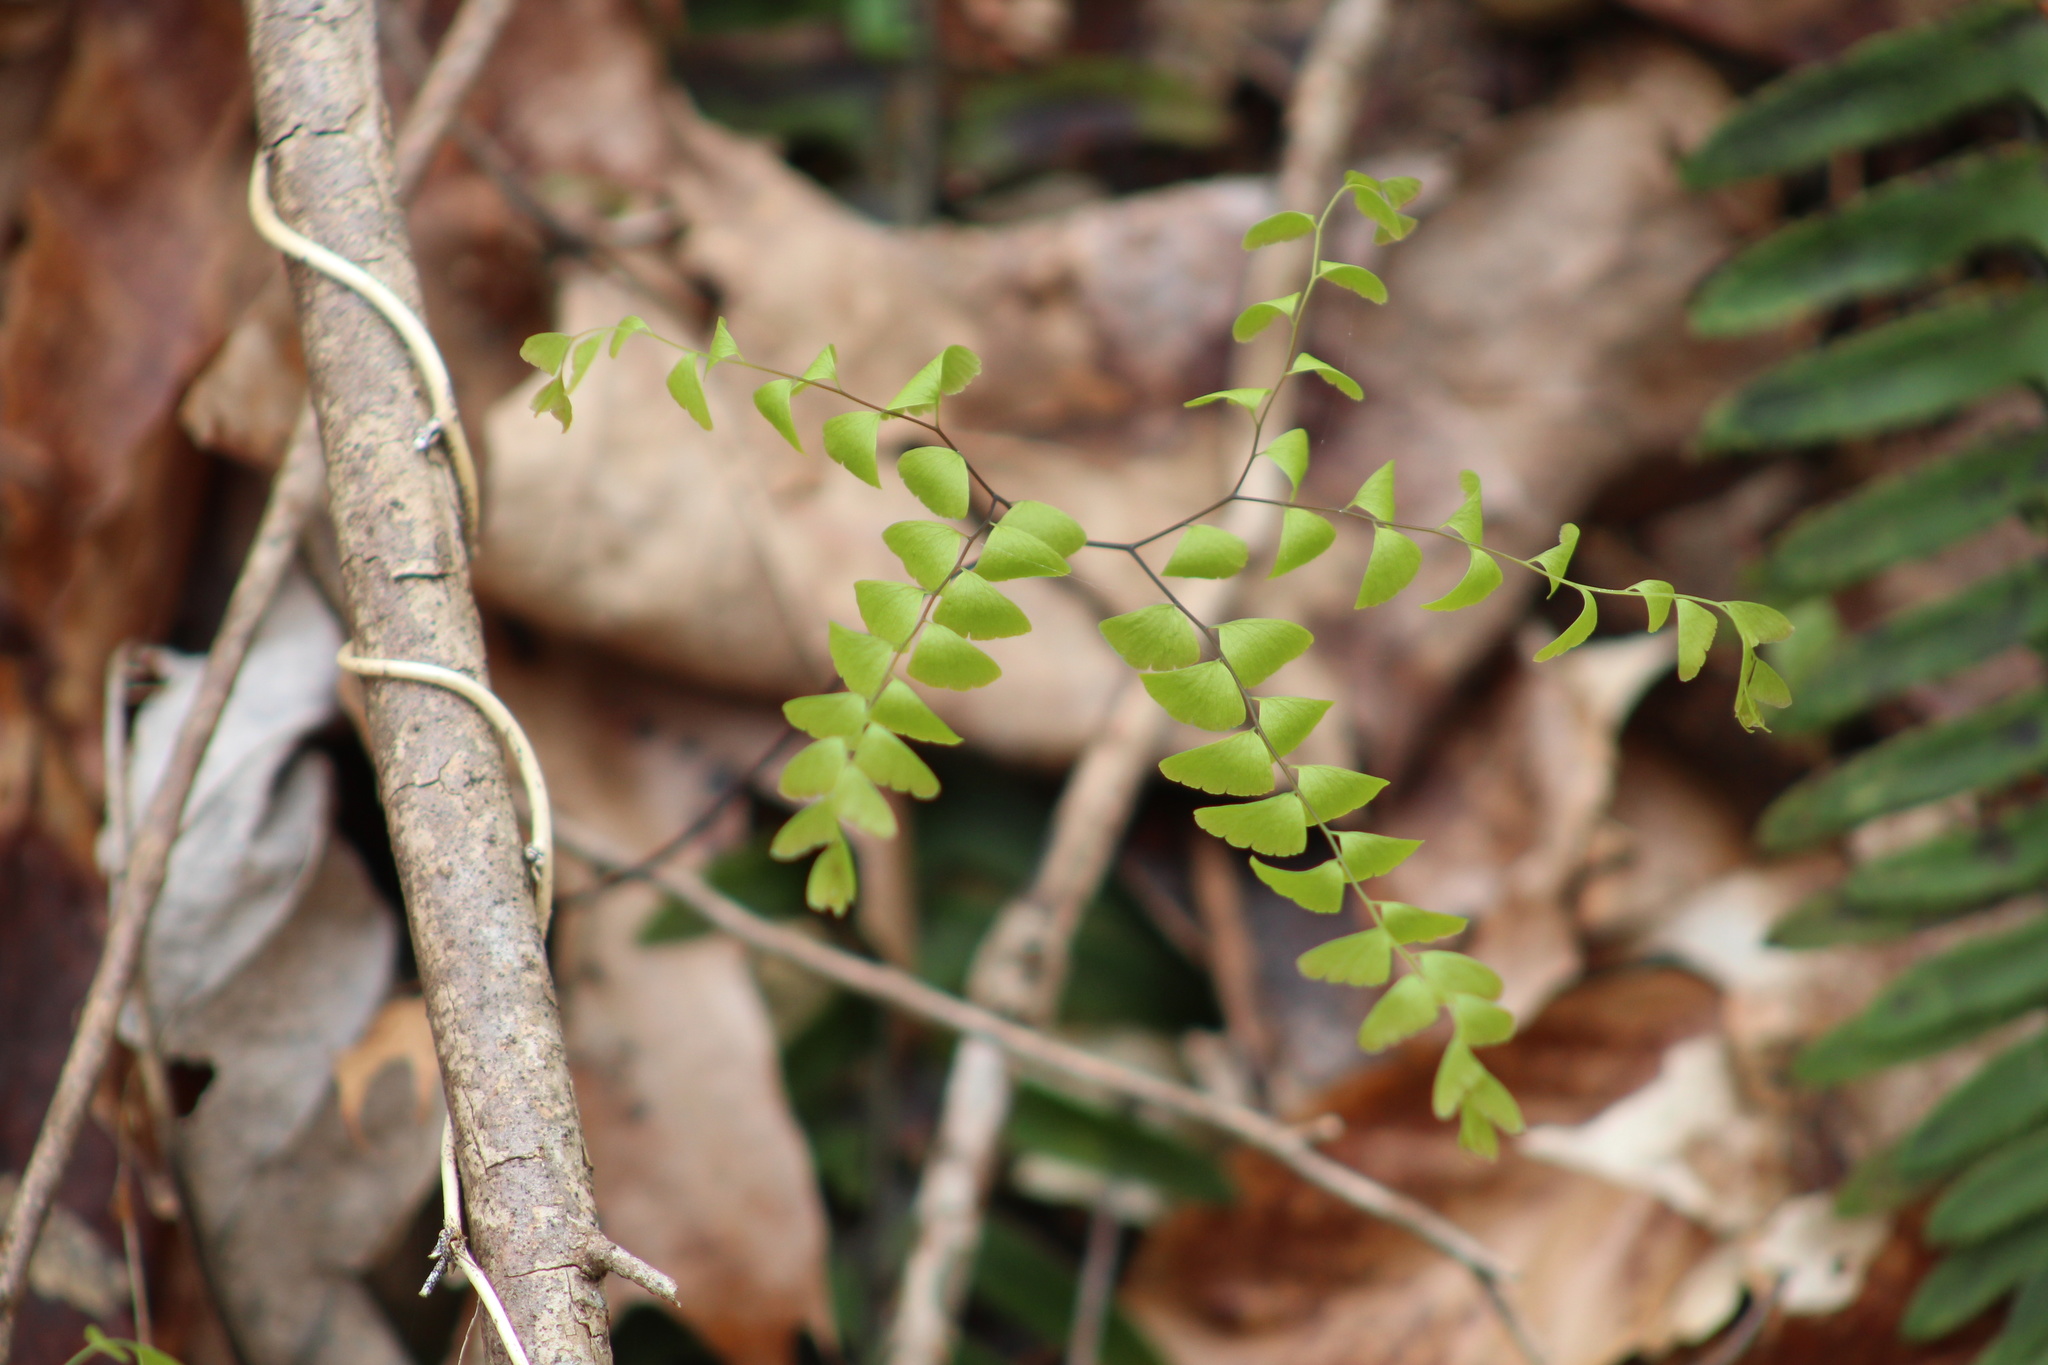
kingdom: Plantae
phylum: Tracheophyta
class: Polypodiopsida
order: Polypodiales
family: Pteridaceae
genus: Adiantum
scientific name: Adiantum pedatum
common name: Five-finger fern
